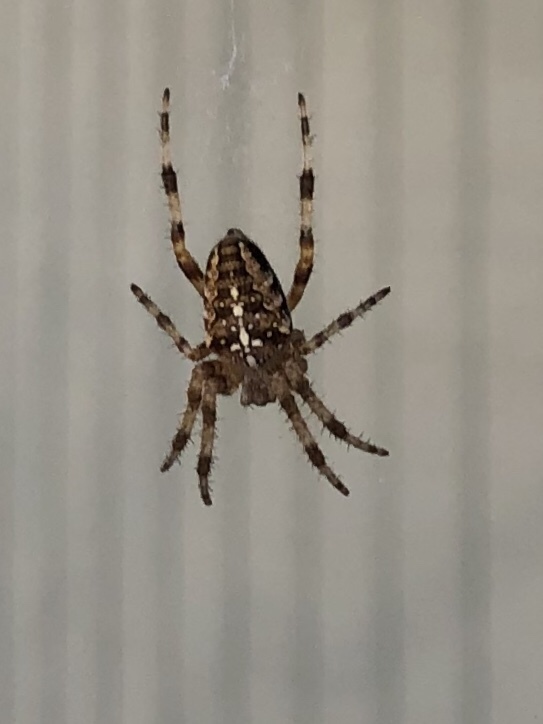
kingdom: Animalia
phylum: Arthropoda
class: Arachnida
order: Araneae
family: Araneidae
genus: Araneus
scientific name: Araneus diadematus
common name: Cross orbweaver
